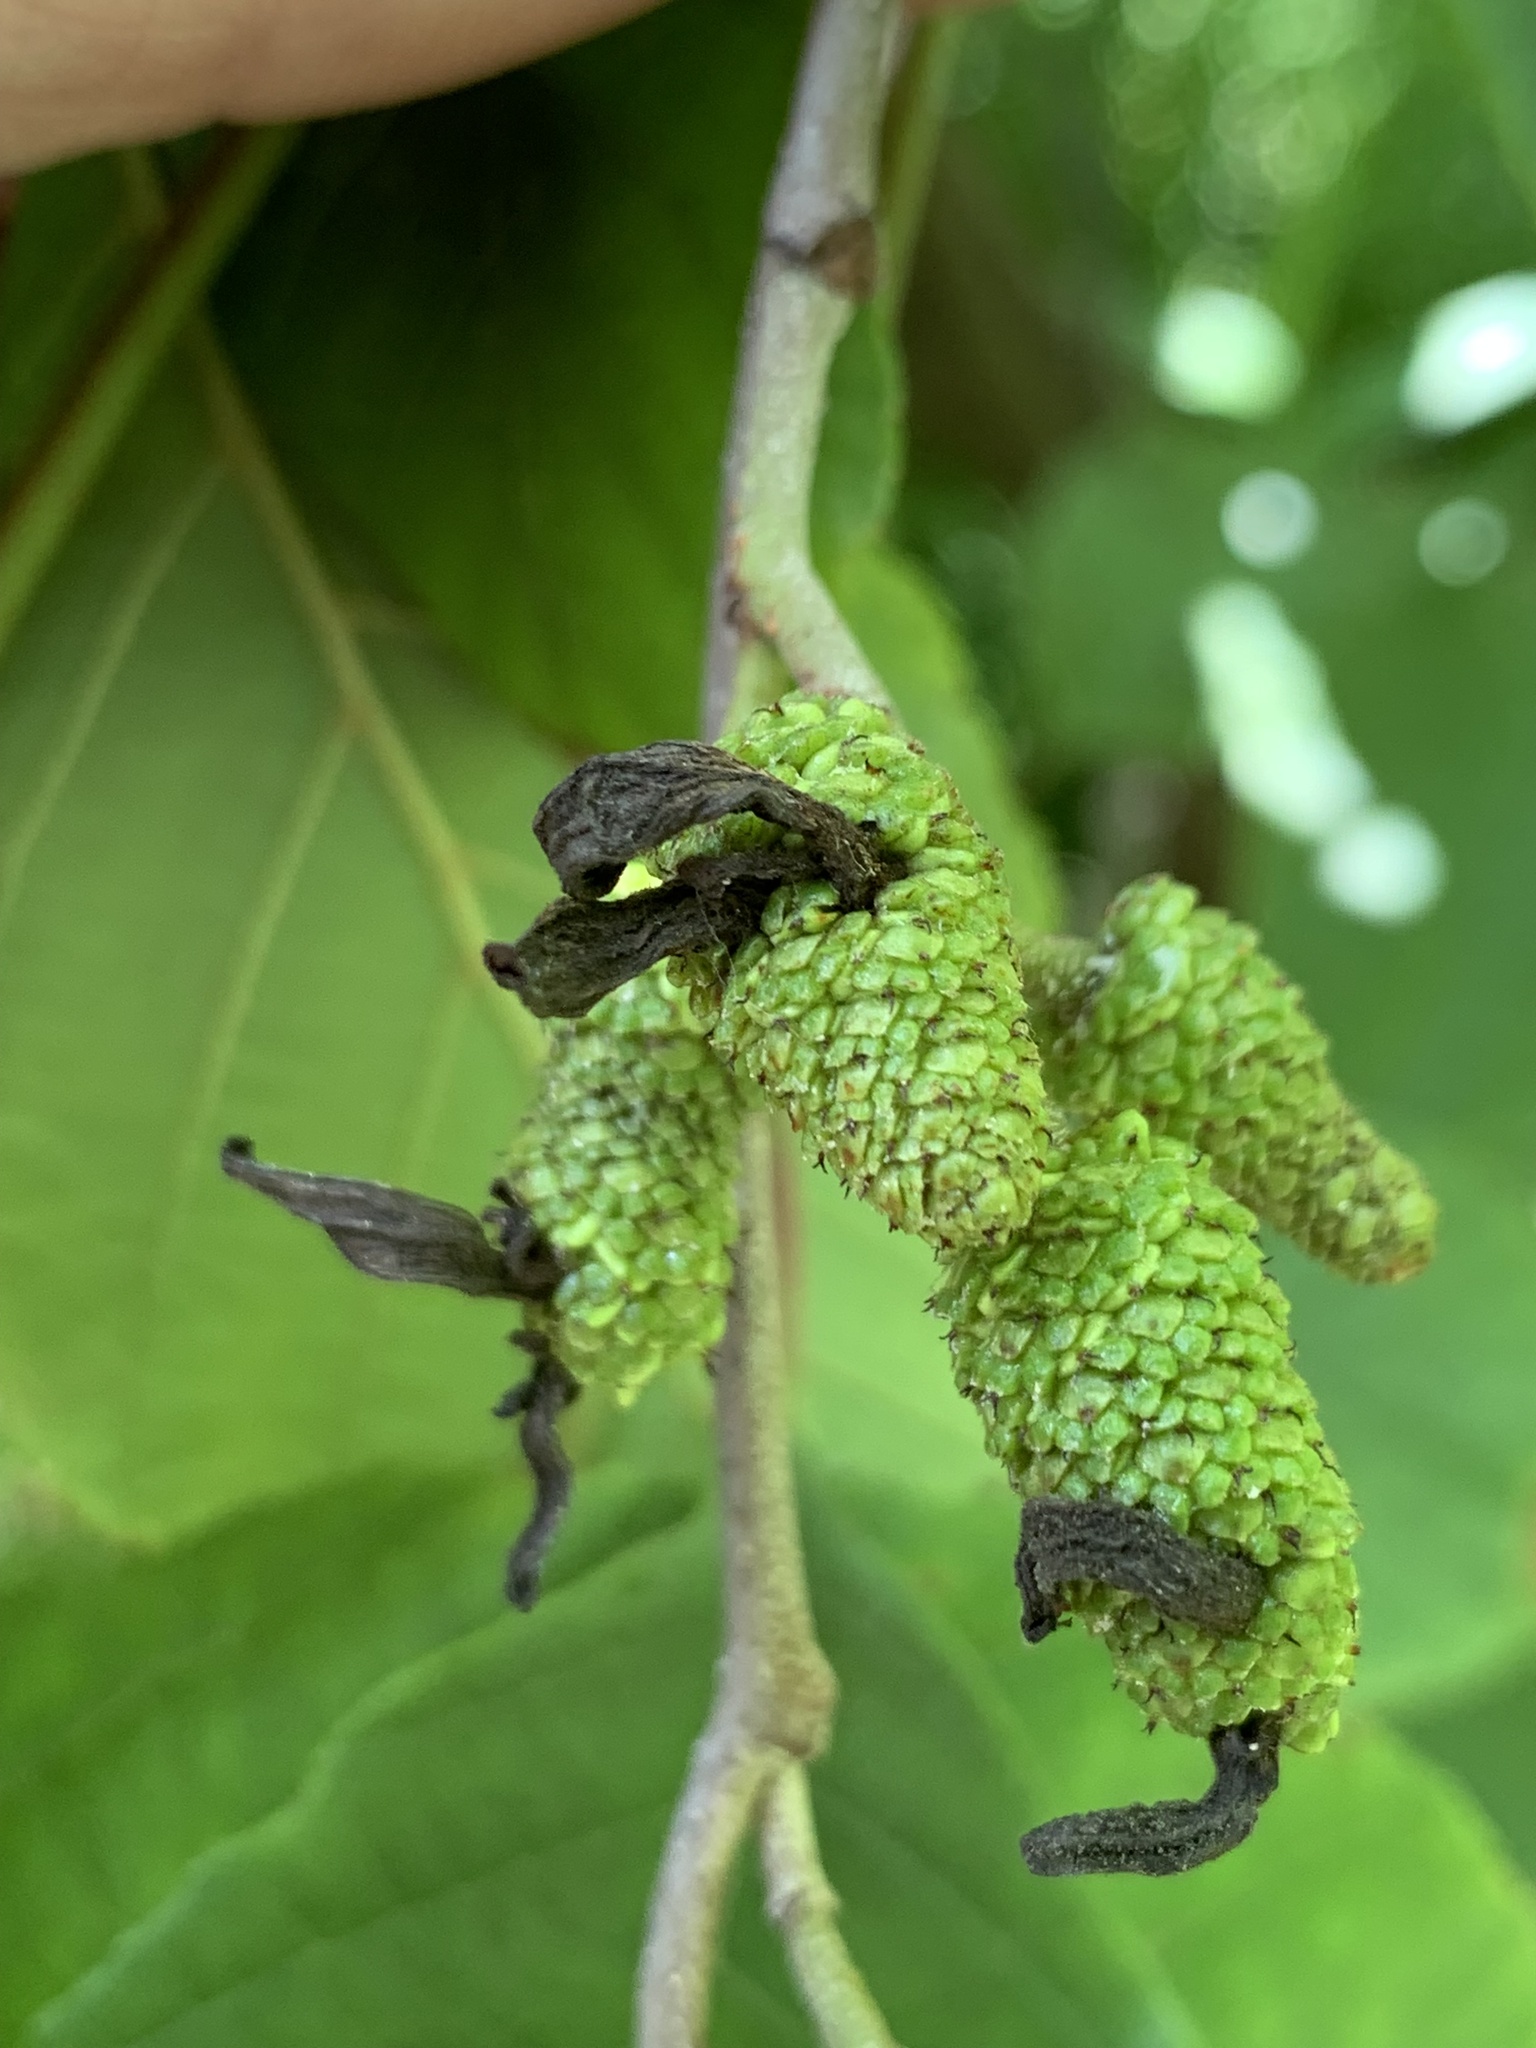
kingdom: Fungi
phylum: Ascomycota
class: Taphrinomycetes
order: Taphrinales
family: Taphrinaceae
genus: Taphrina
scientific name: Taphrina robinsoniana
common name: Eastern american alder tongue gall fungus
